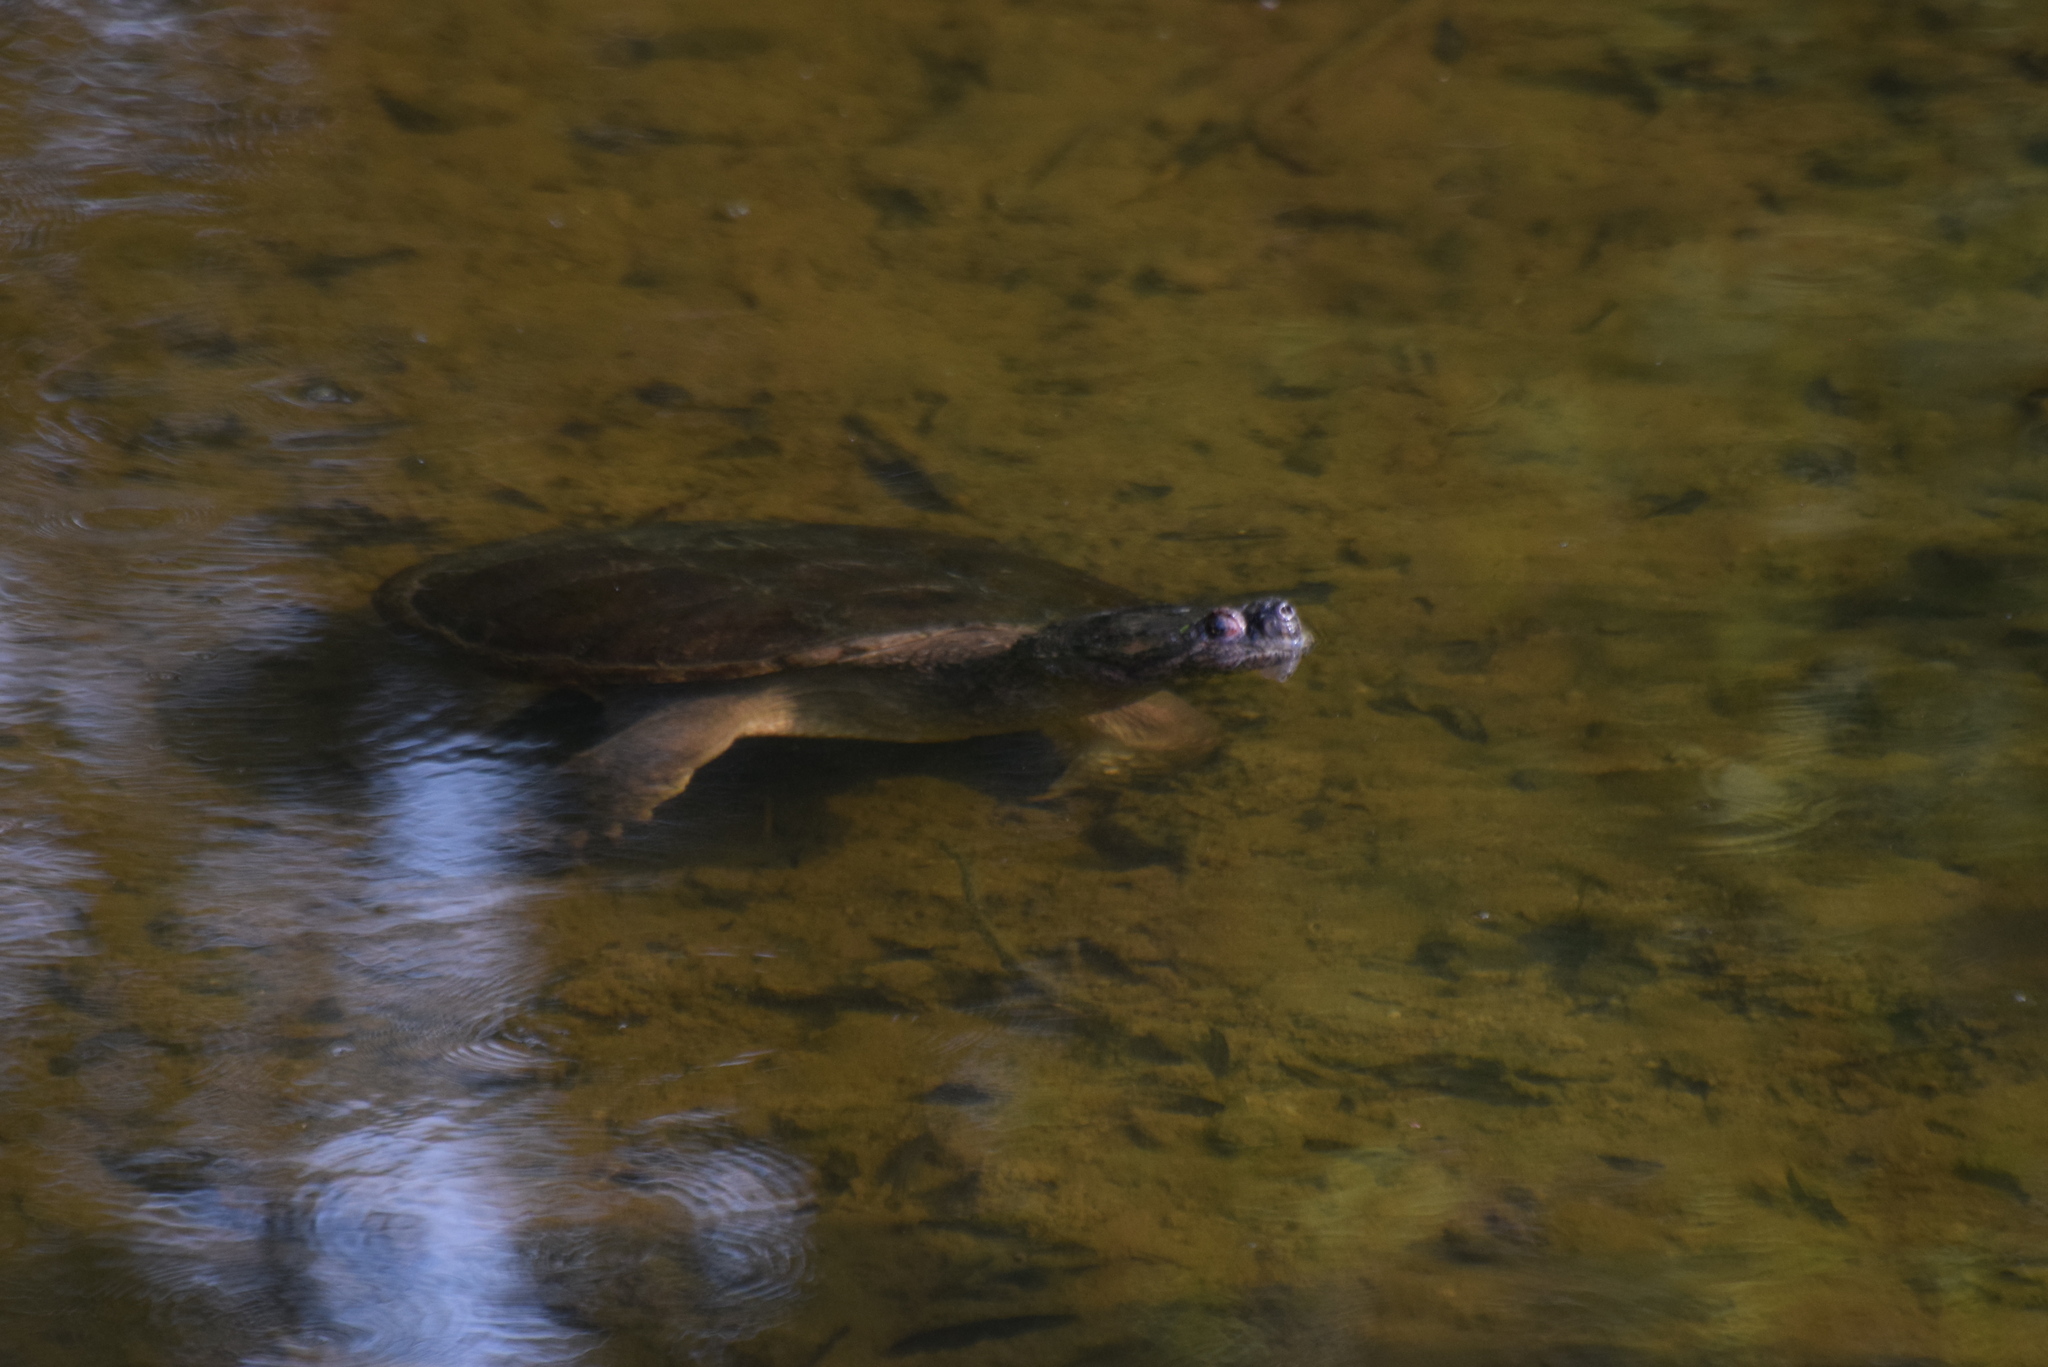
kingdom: Animalia
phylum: Chordata
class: Testudines
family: Chelydridae
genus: Chelydra
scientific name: Chelydra serpentina
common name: Common snapping turtle
